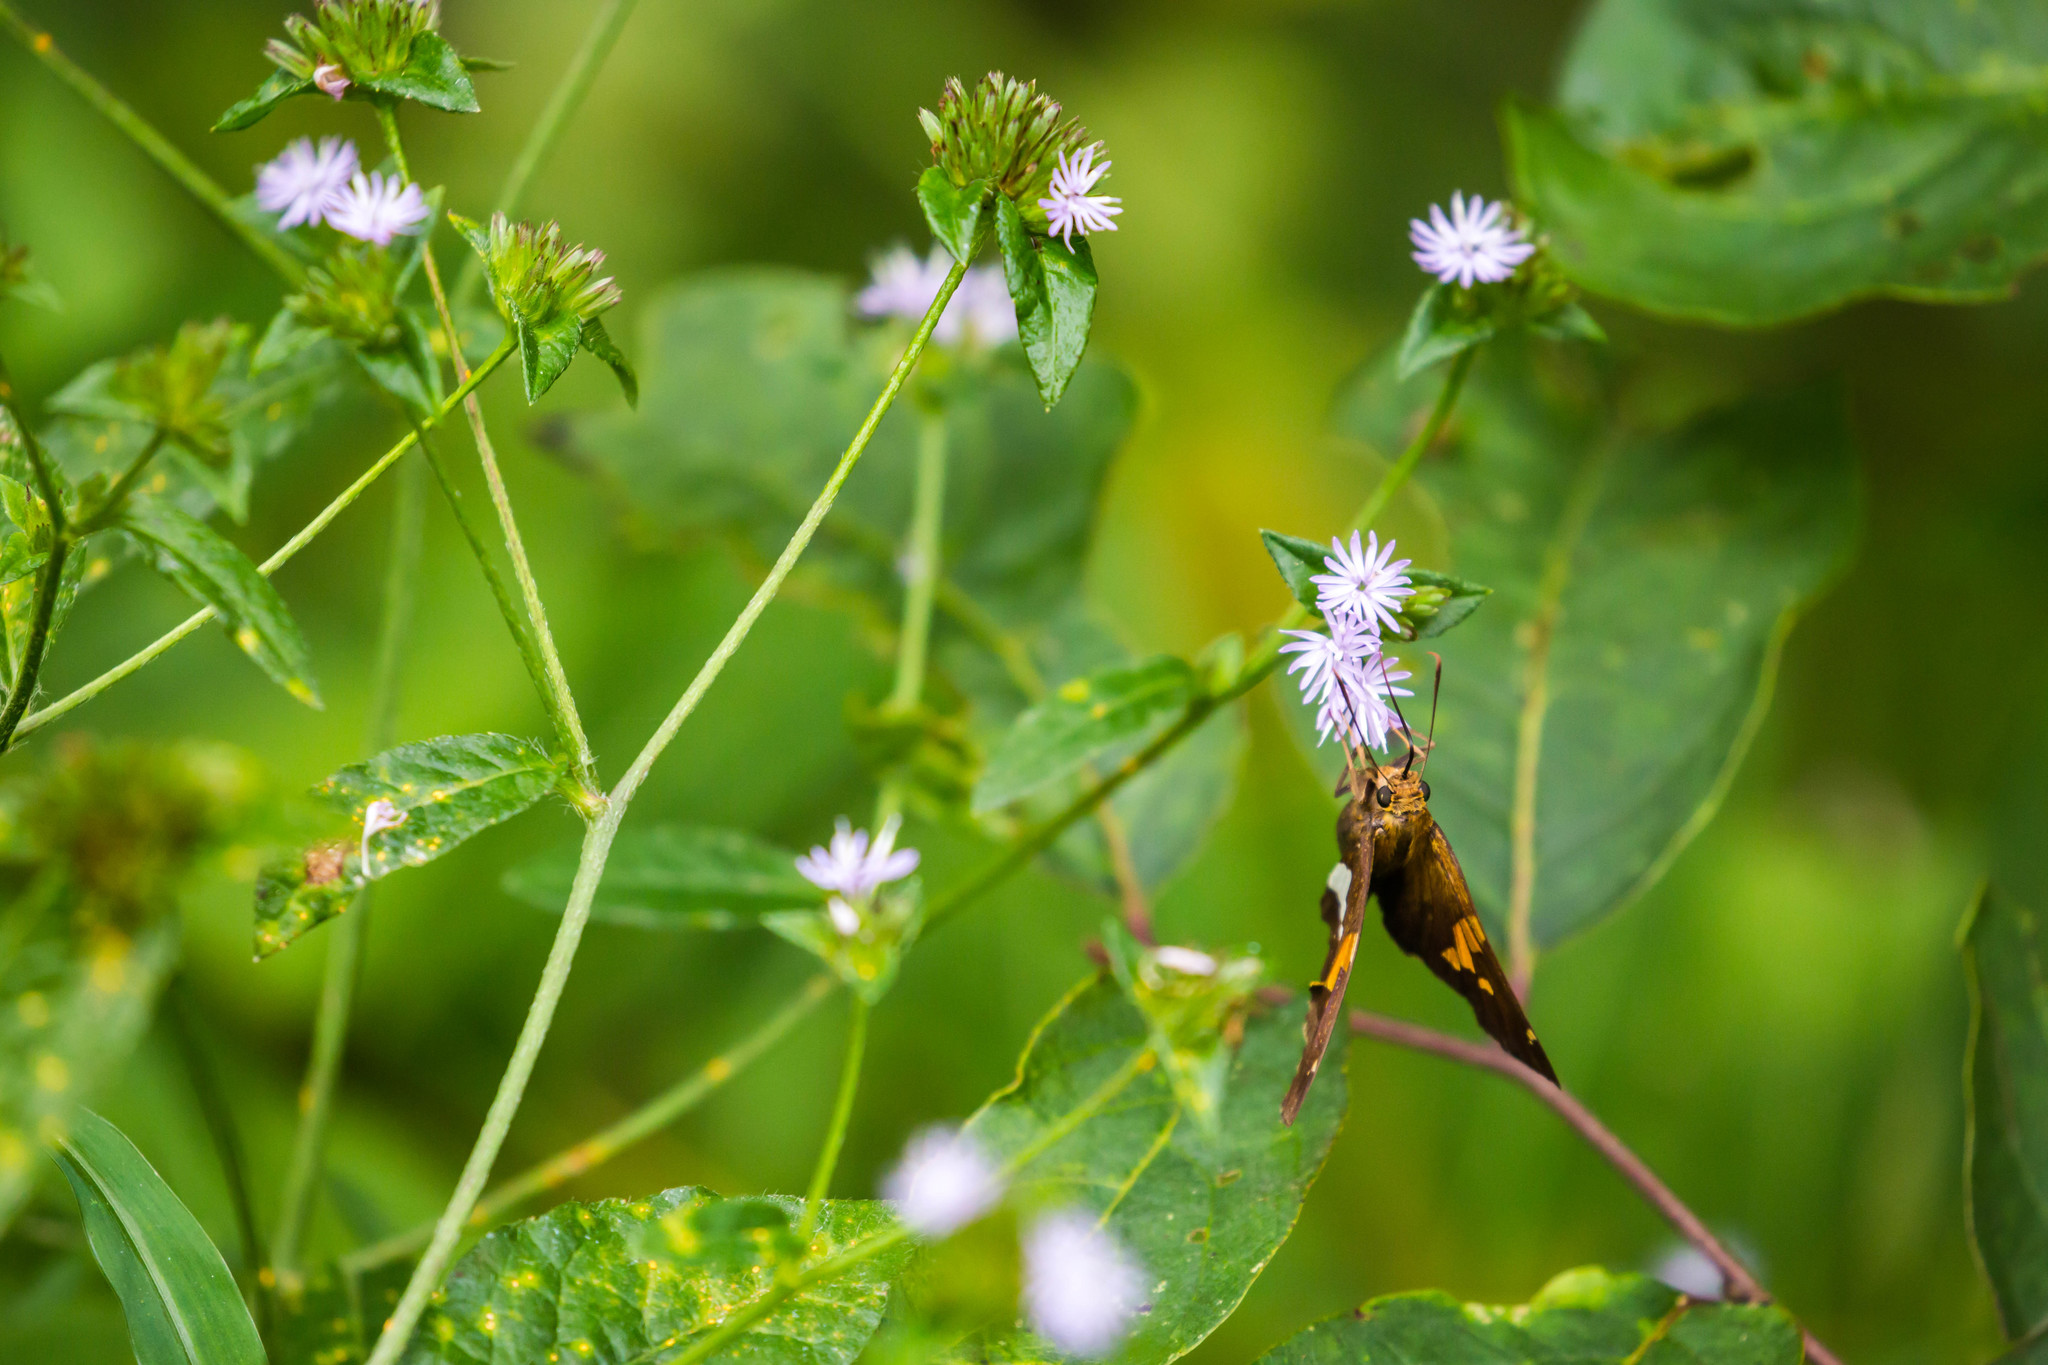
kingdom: Animalia
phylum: Arthropoda
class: Insecta
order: Lepidoptera
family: Hesperiidae
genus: Epargyreus
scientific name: Epargyreus clarus
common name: Silver-spotted skipper
